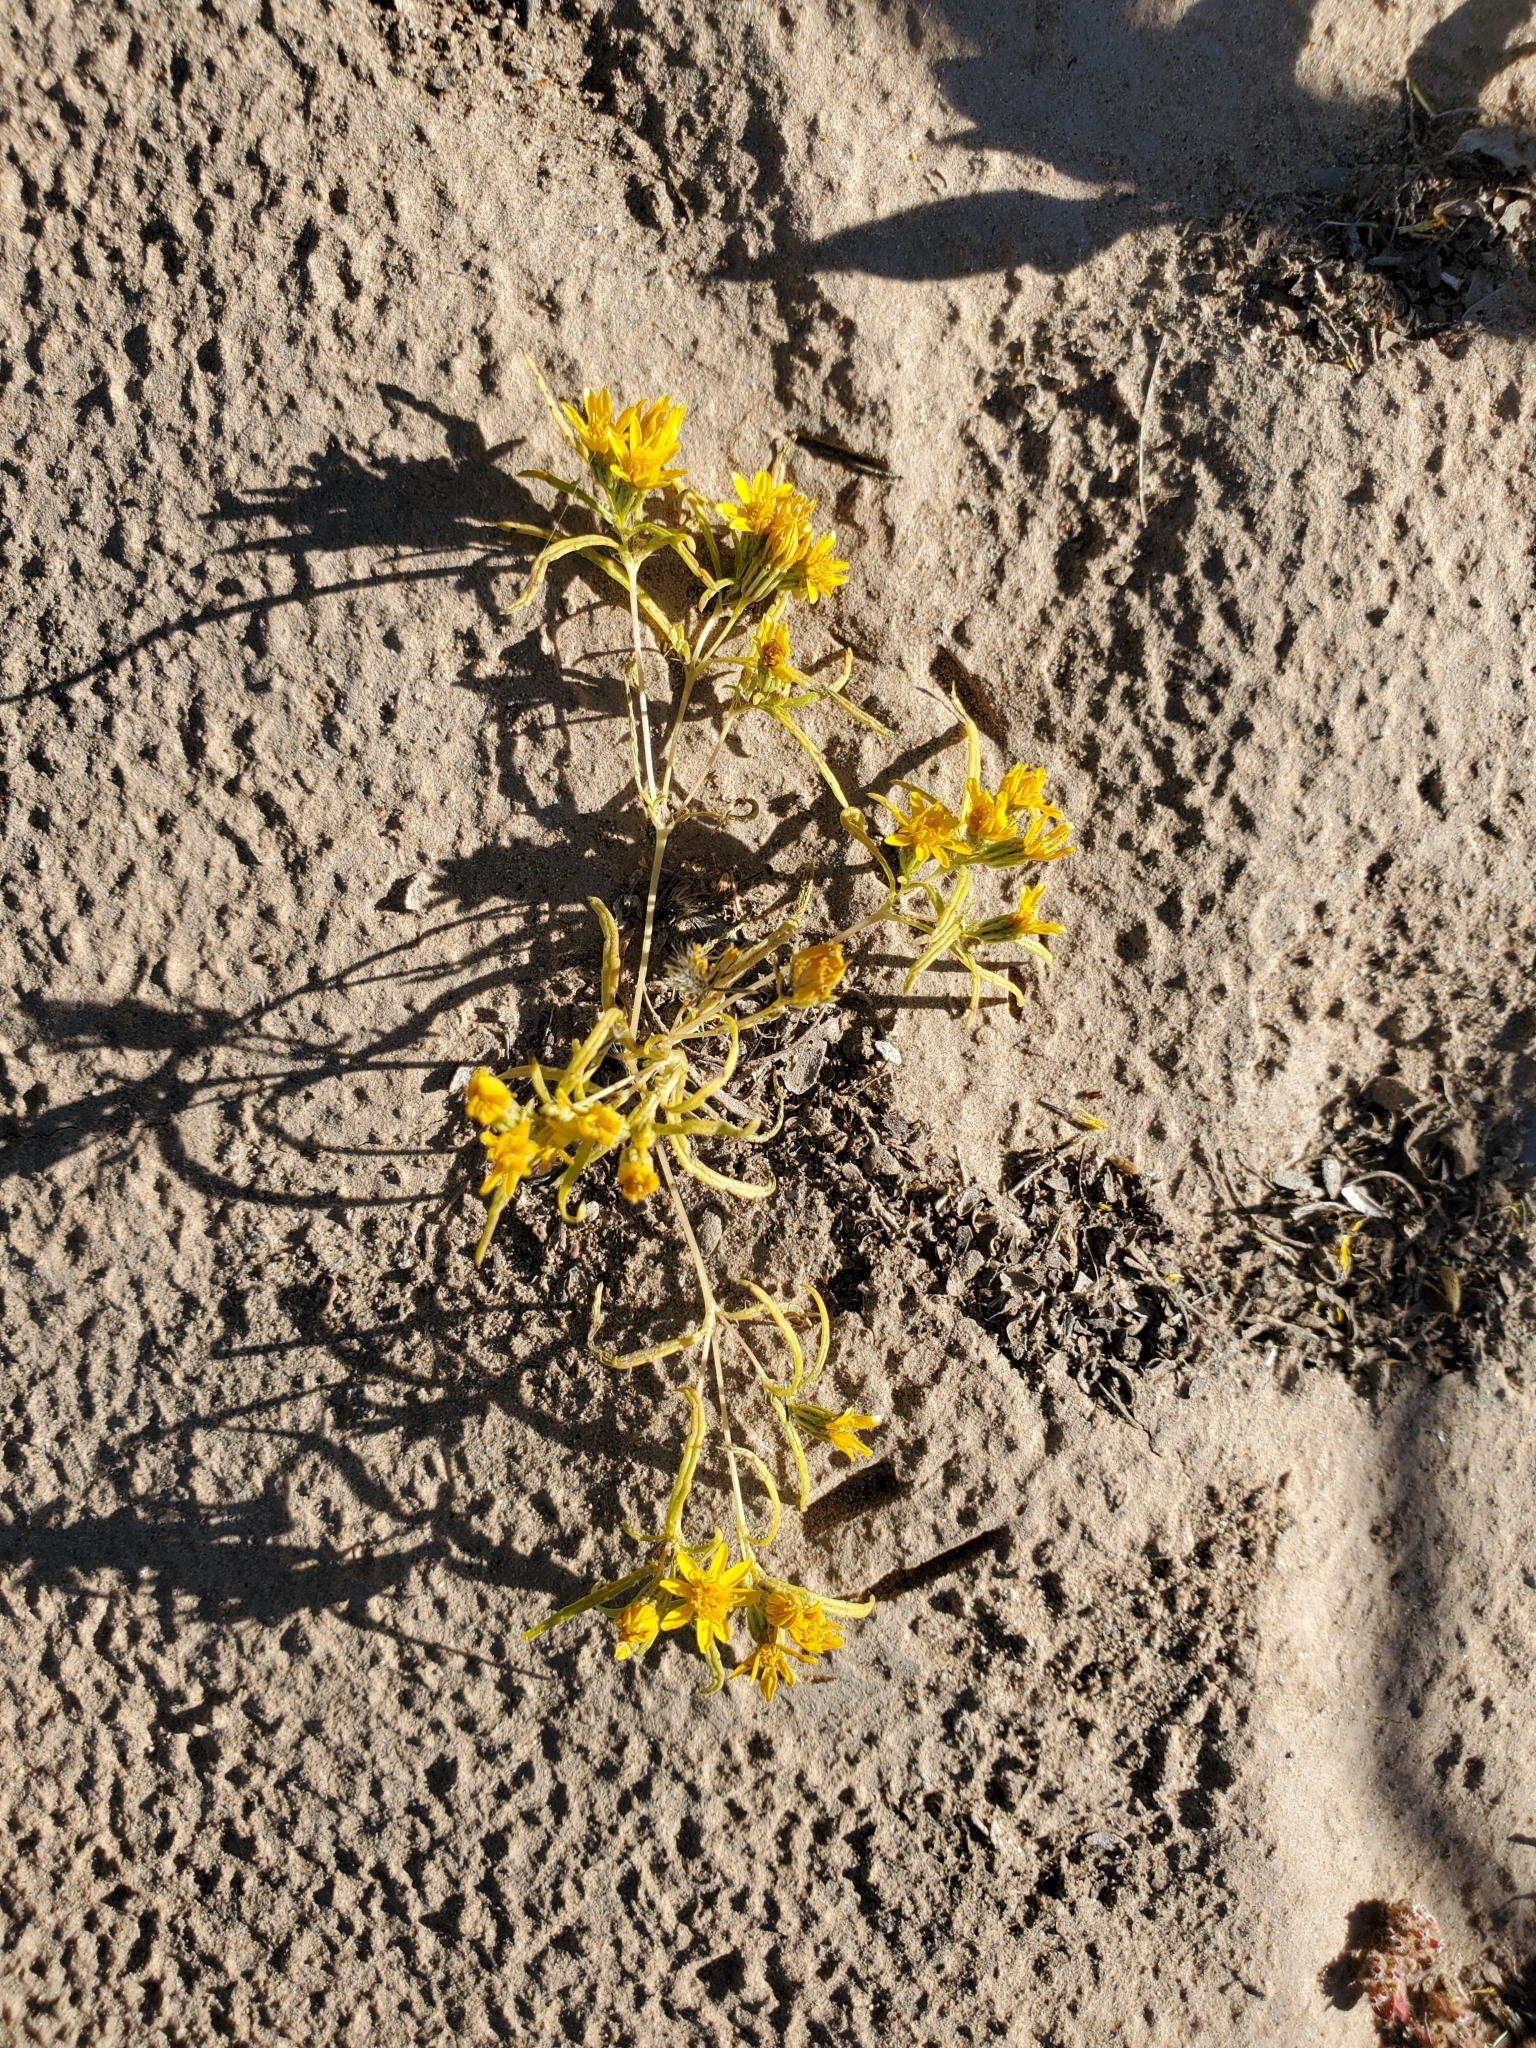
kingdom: Plantae
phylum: Tracheophyta
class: Magnoliopsida
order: Asterales
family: Asteraceae
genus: Pectis
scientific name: Pectis papposa
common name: Many-bristle chinchweed
